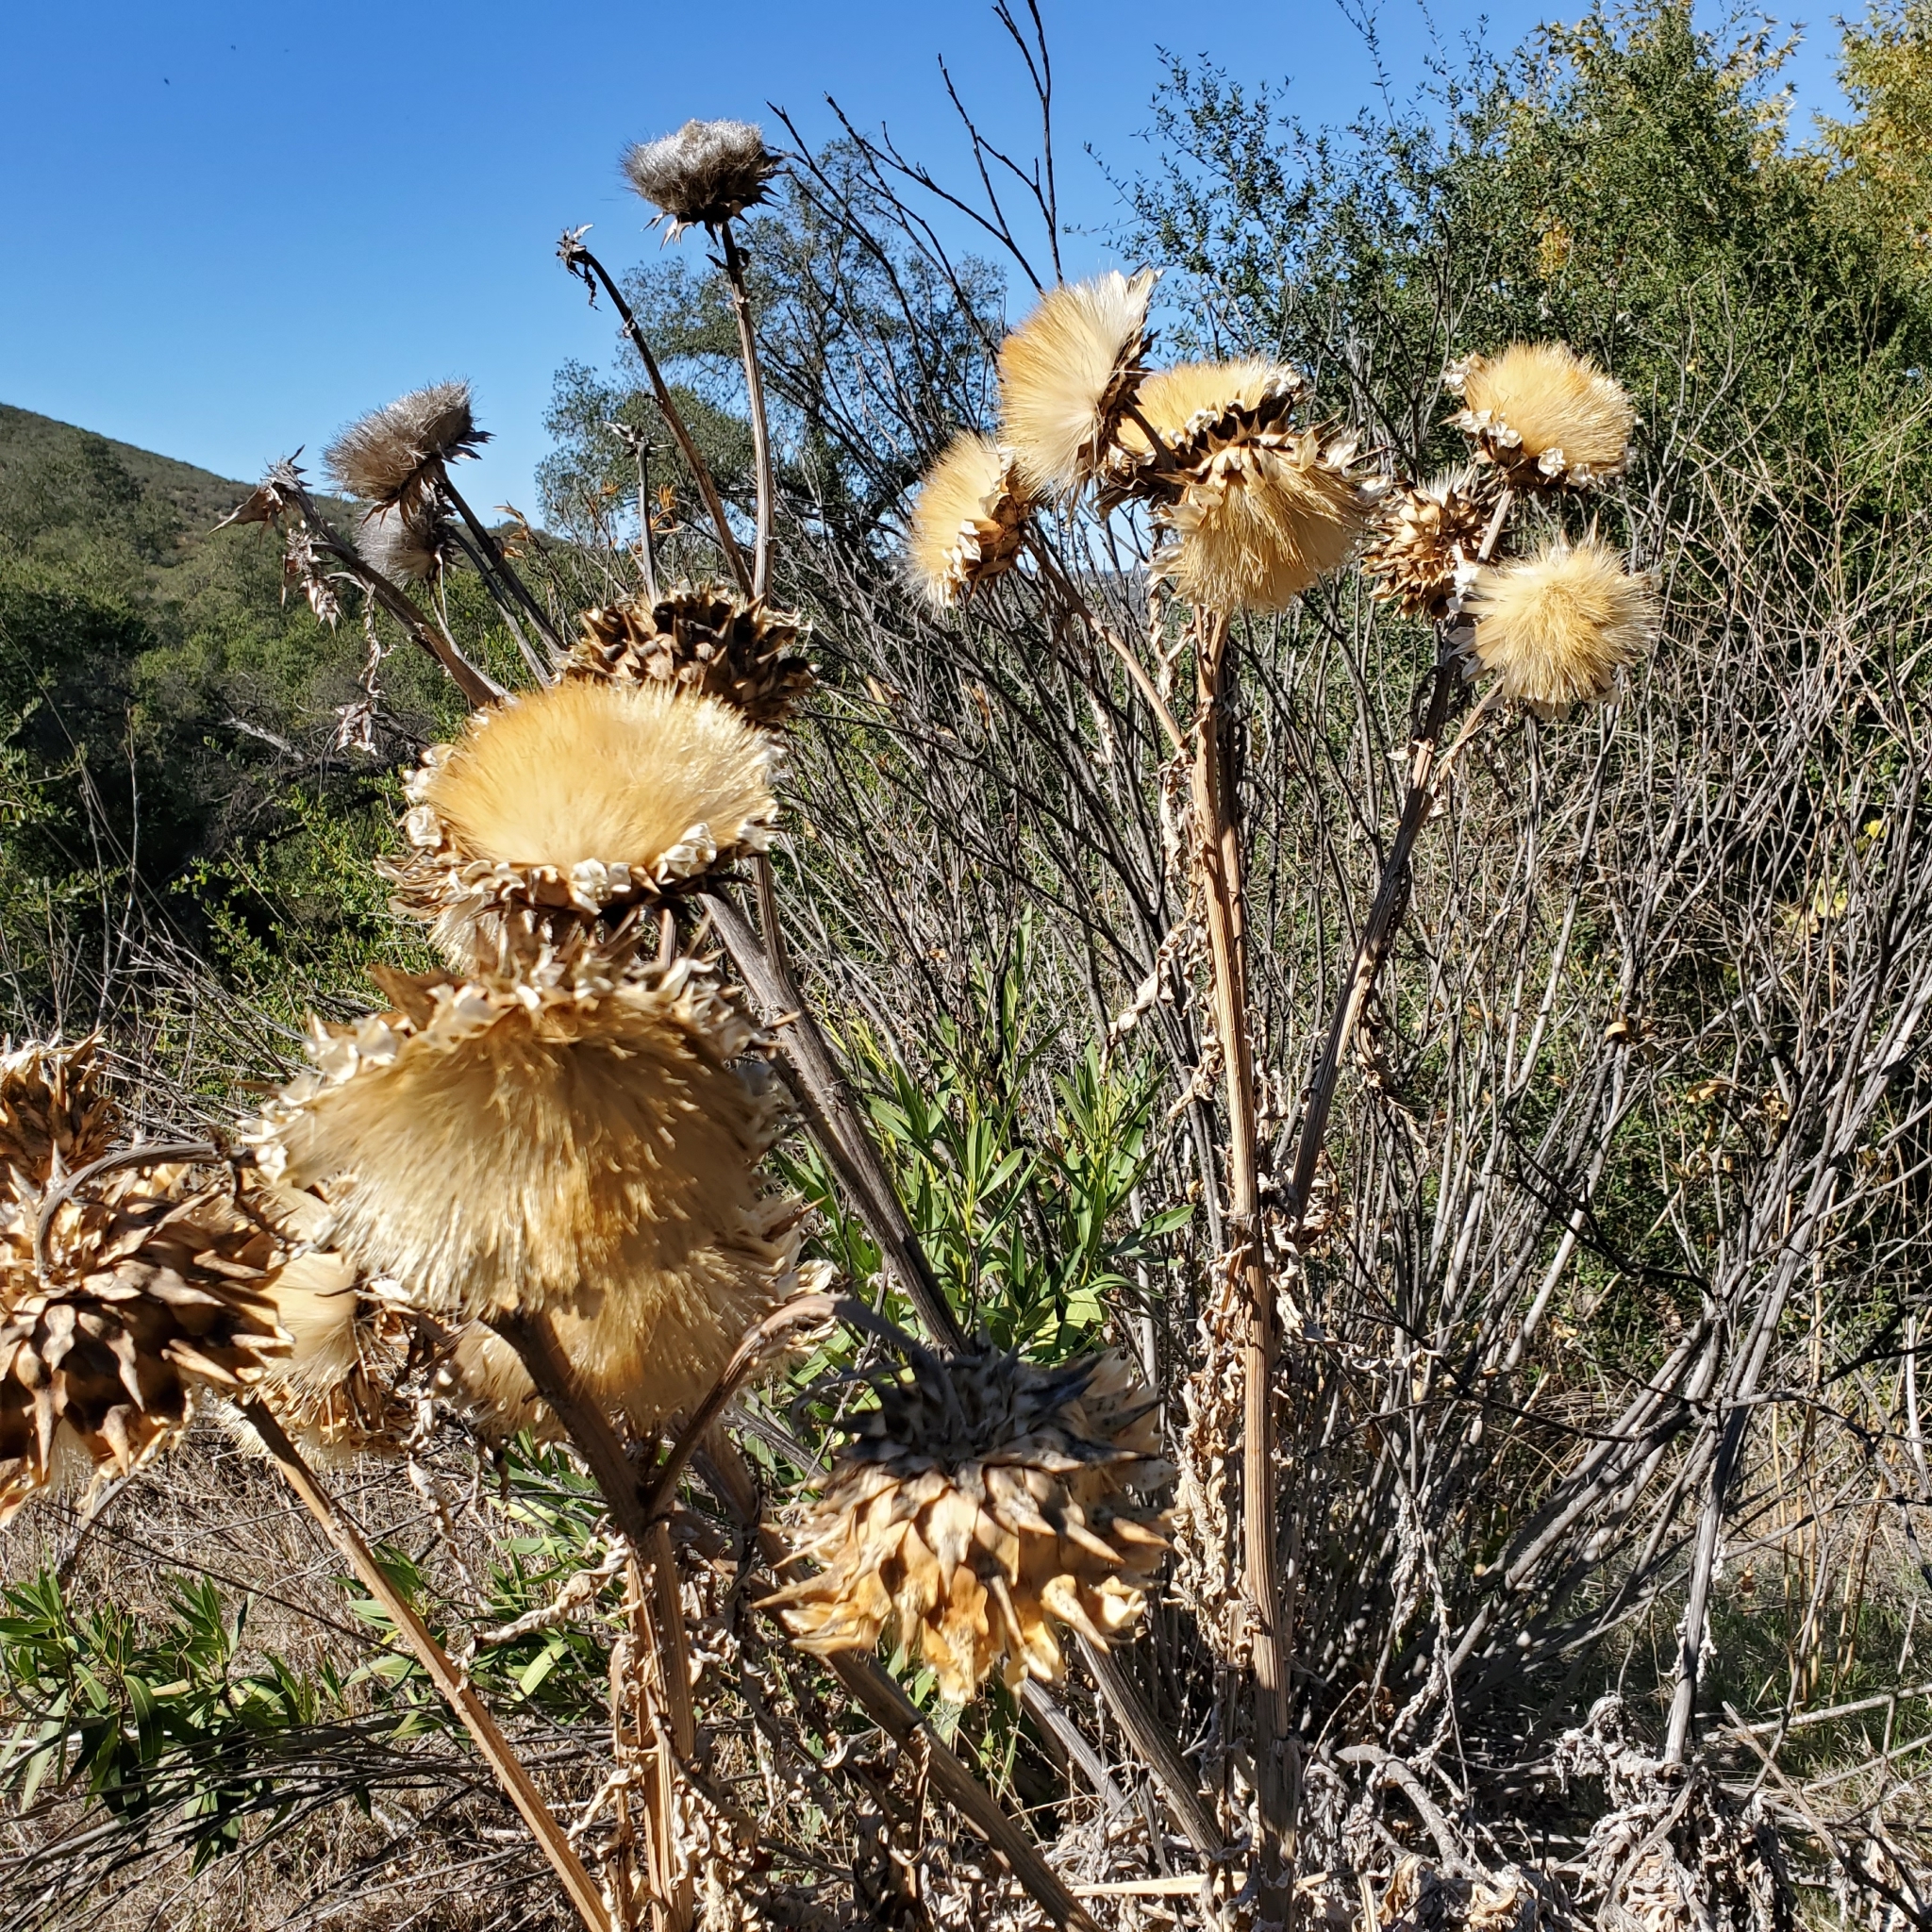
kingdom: Plantae
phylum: Tracheophyta
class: Magnoliopsida
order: Asterales
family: Asteraceae
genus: Cynara
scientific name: Cynara cardunculus
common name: Globe artichoke
